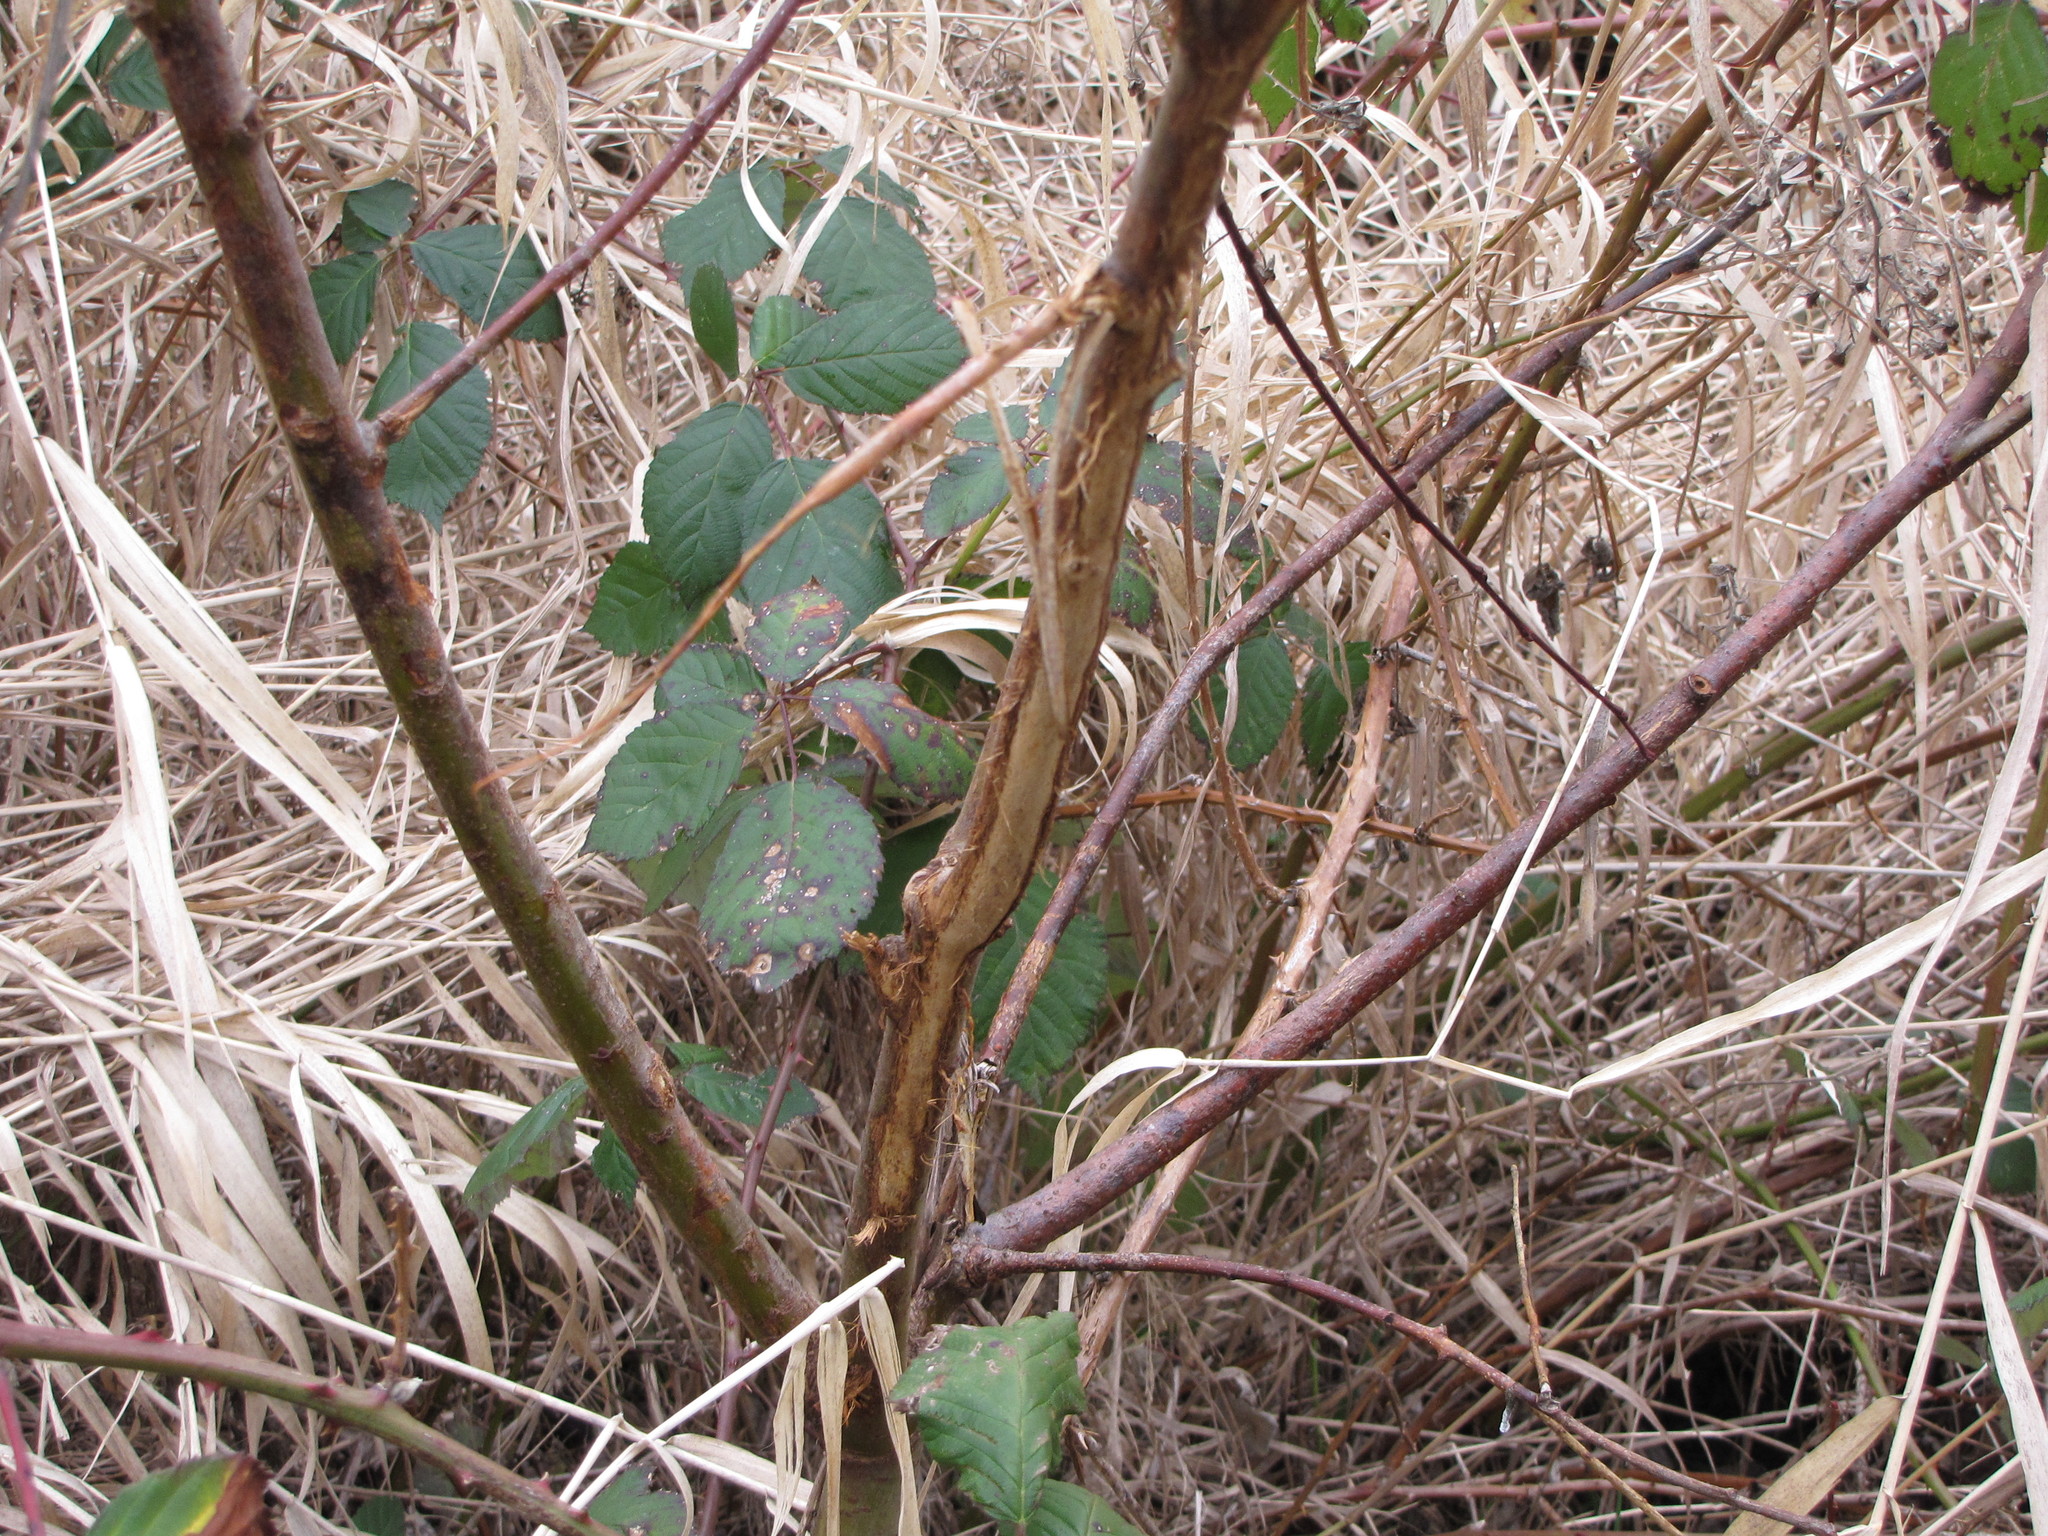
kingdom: Animalia
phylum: Chordata
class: Mammalia
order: Artiodactyla
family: Cervidae
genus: Odocoileus
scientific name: Odocoileus hemionus
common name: Mule deer
